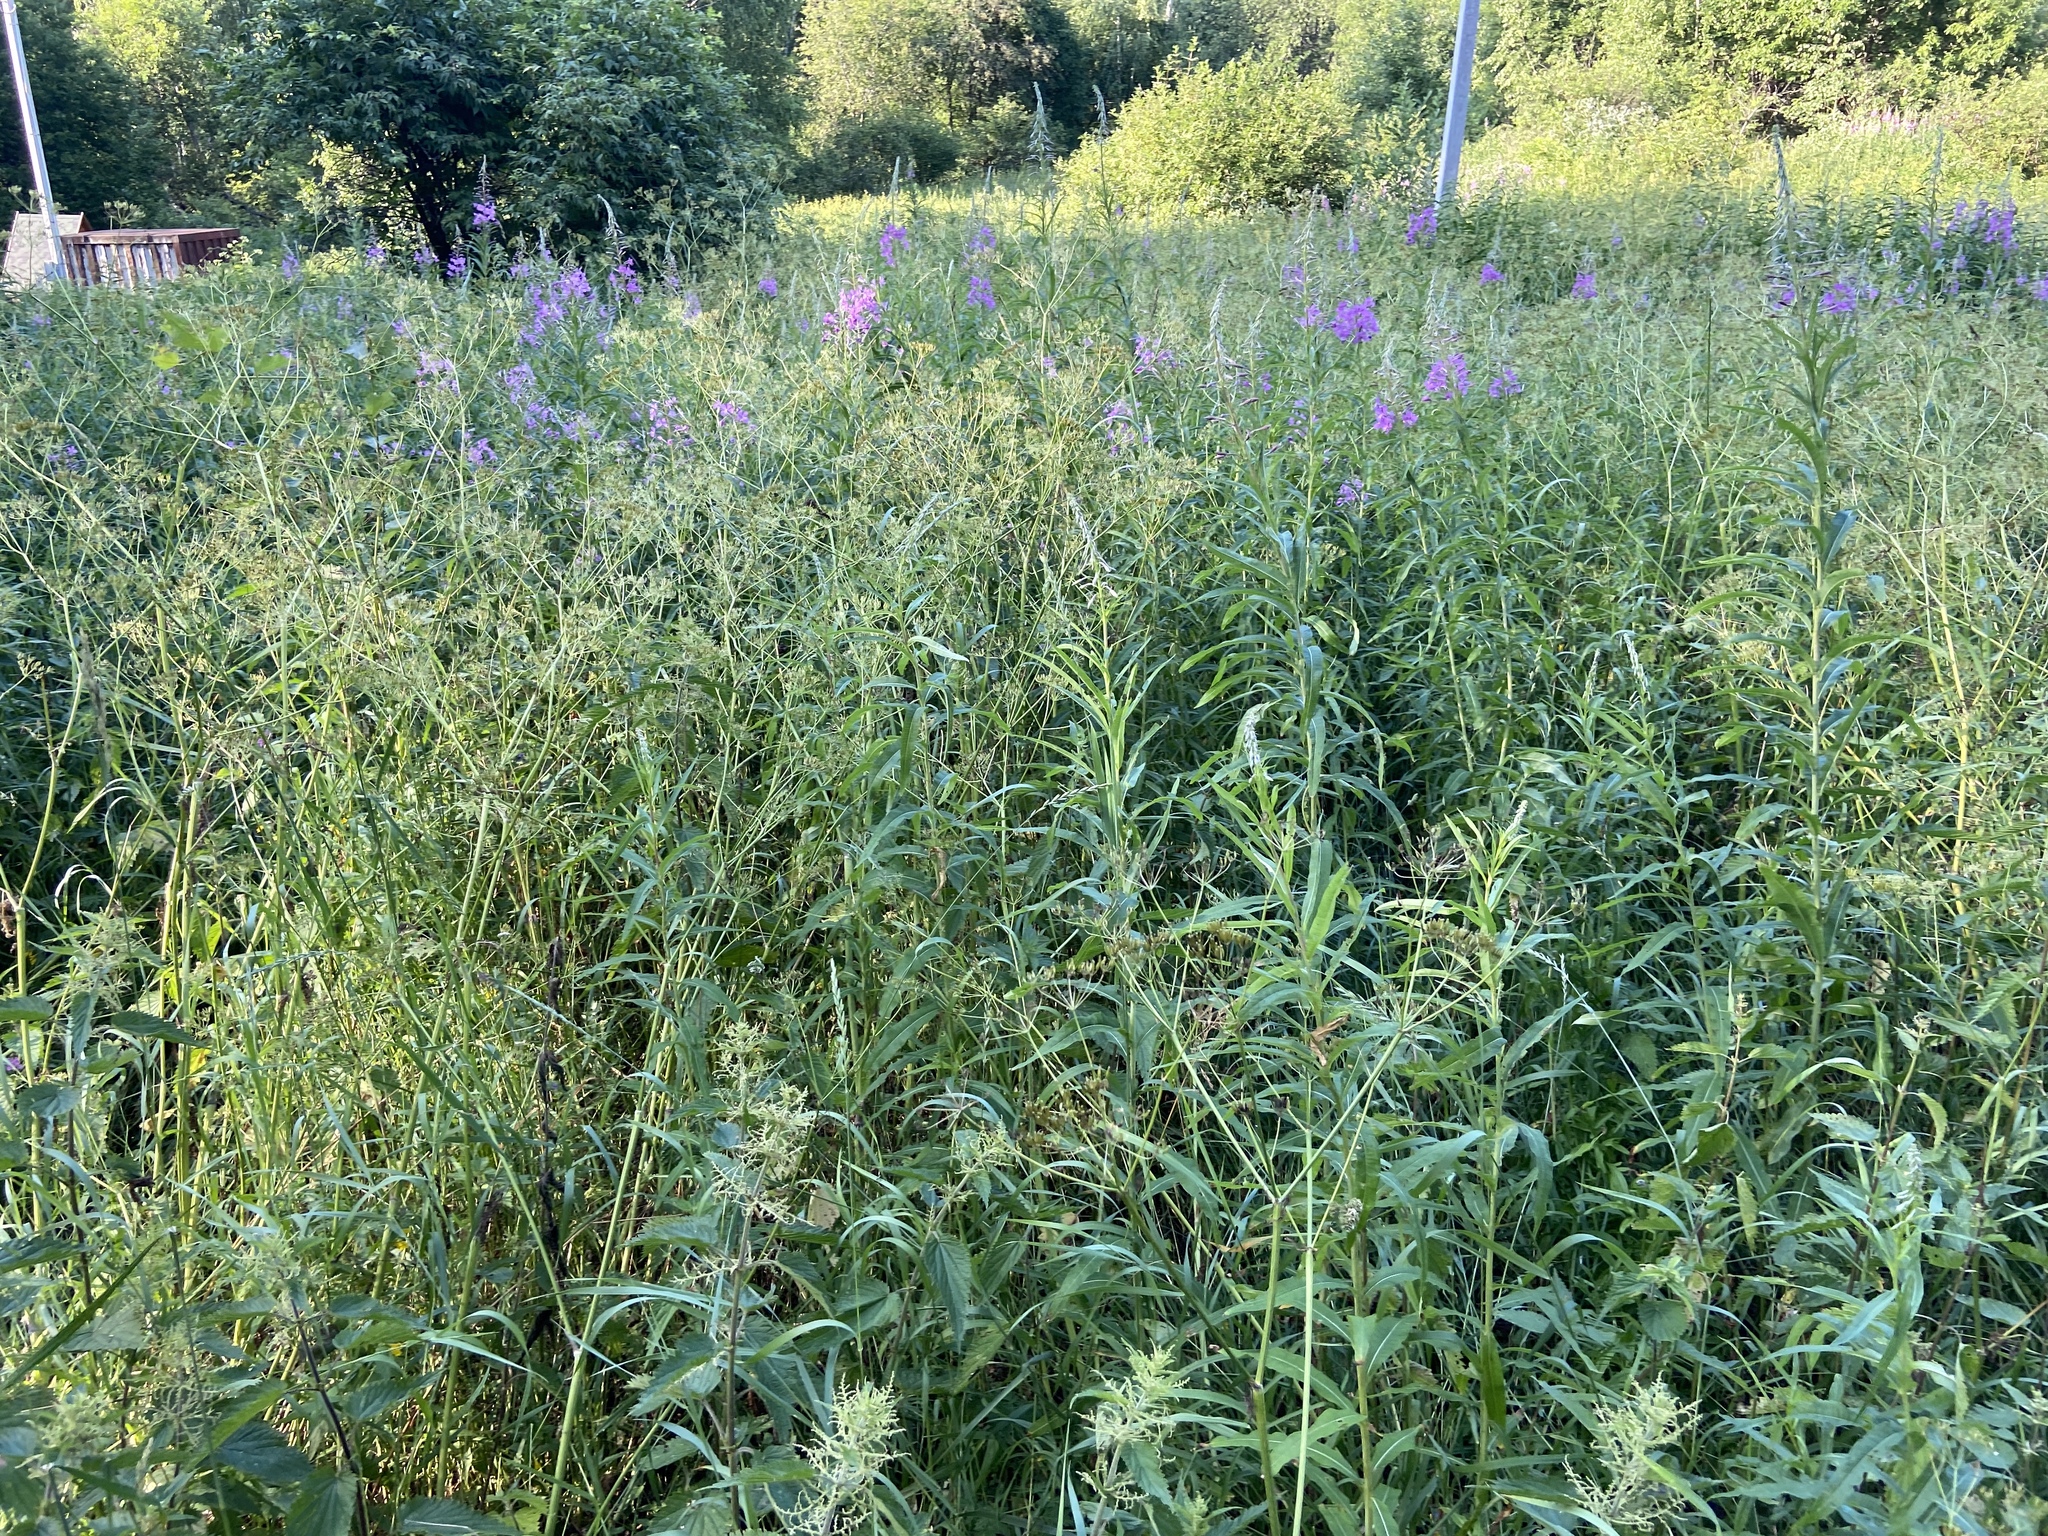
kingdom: Plantae
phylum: Tracheophyta
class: Magnoliopsida
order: Myrtales
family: Onagraceae
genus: Chamaenerion
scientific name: Chamaenerion angustifolium
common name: Fireweed
